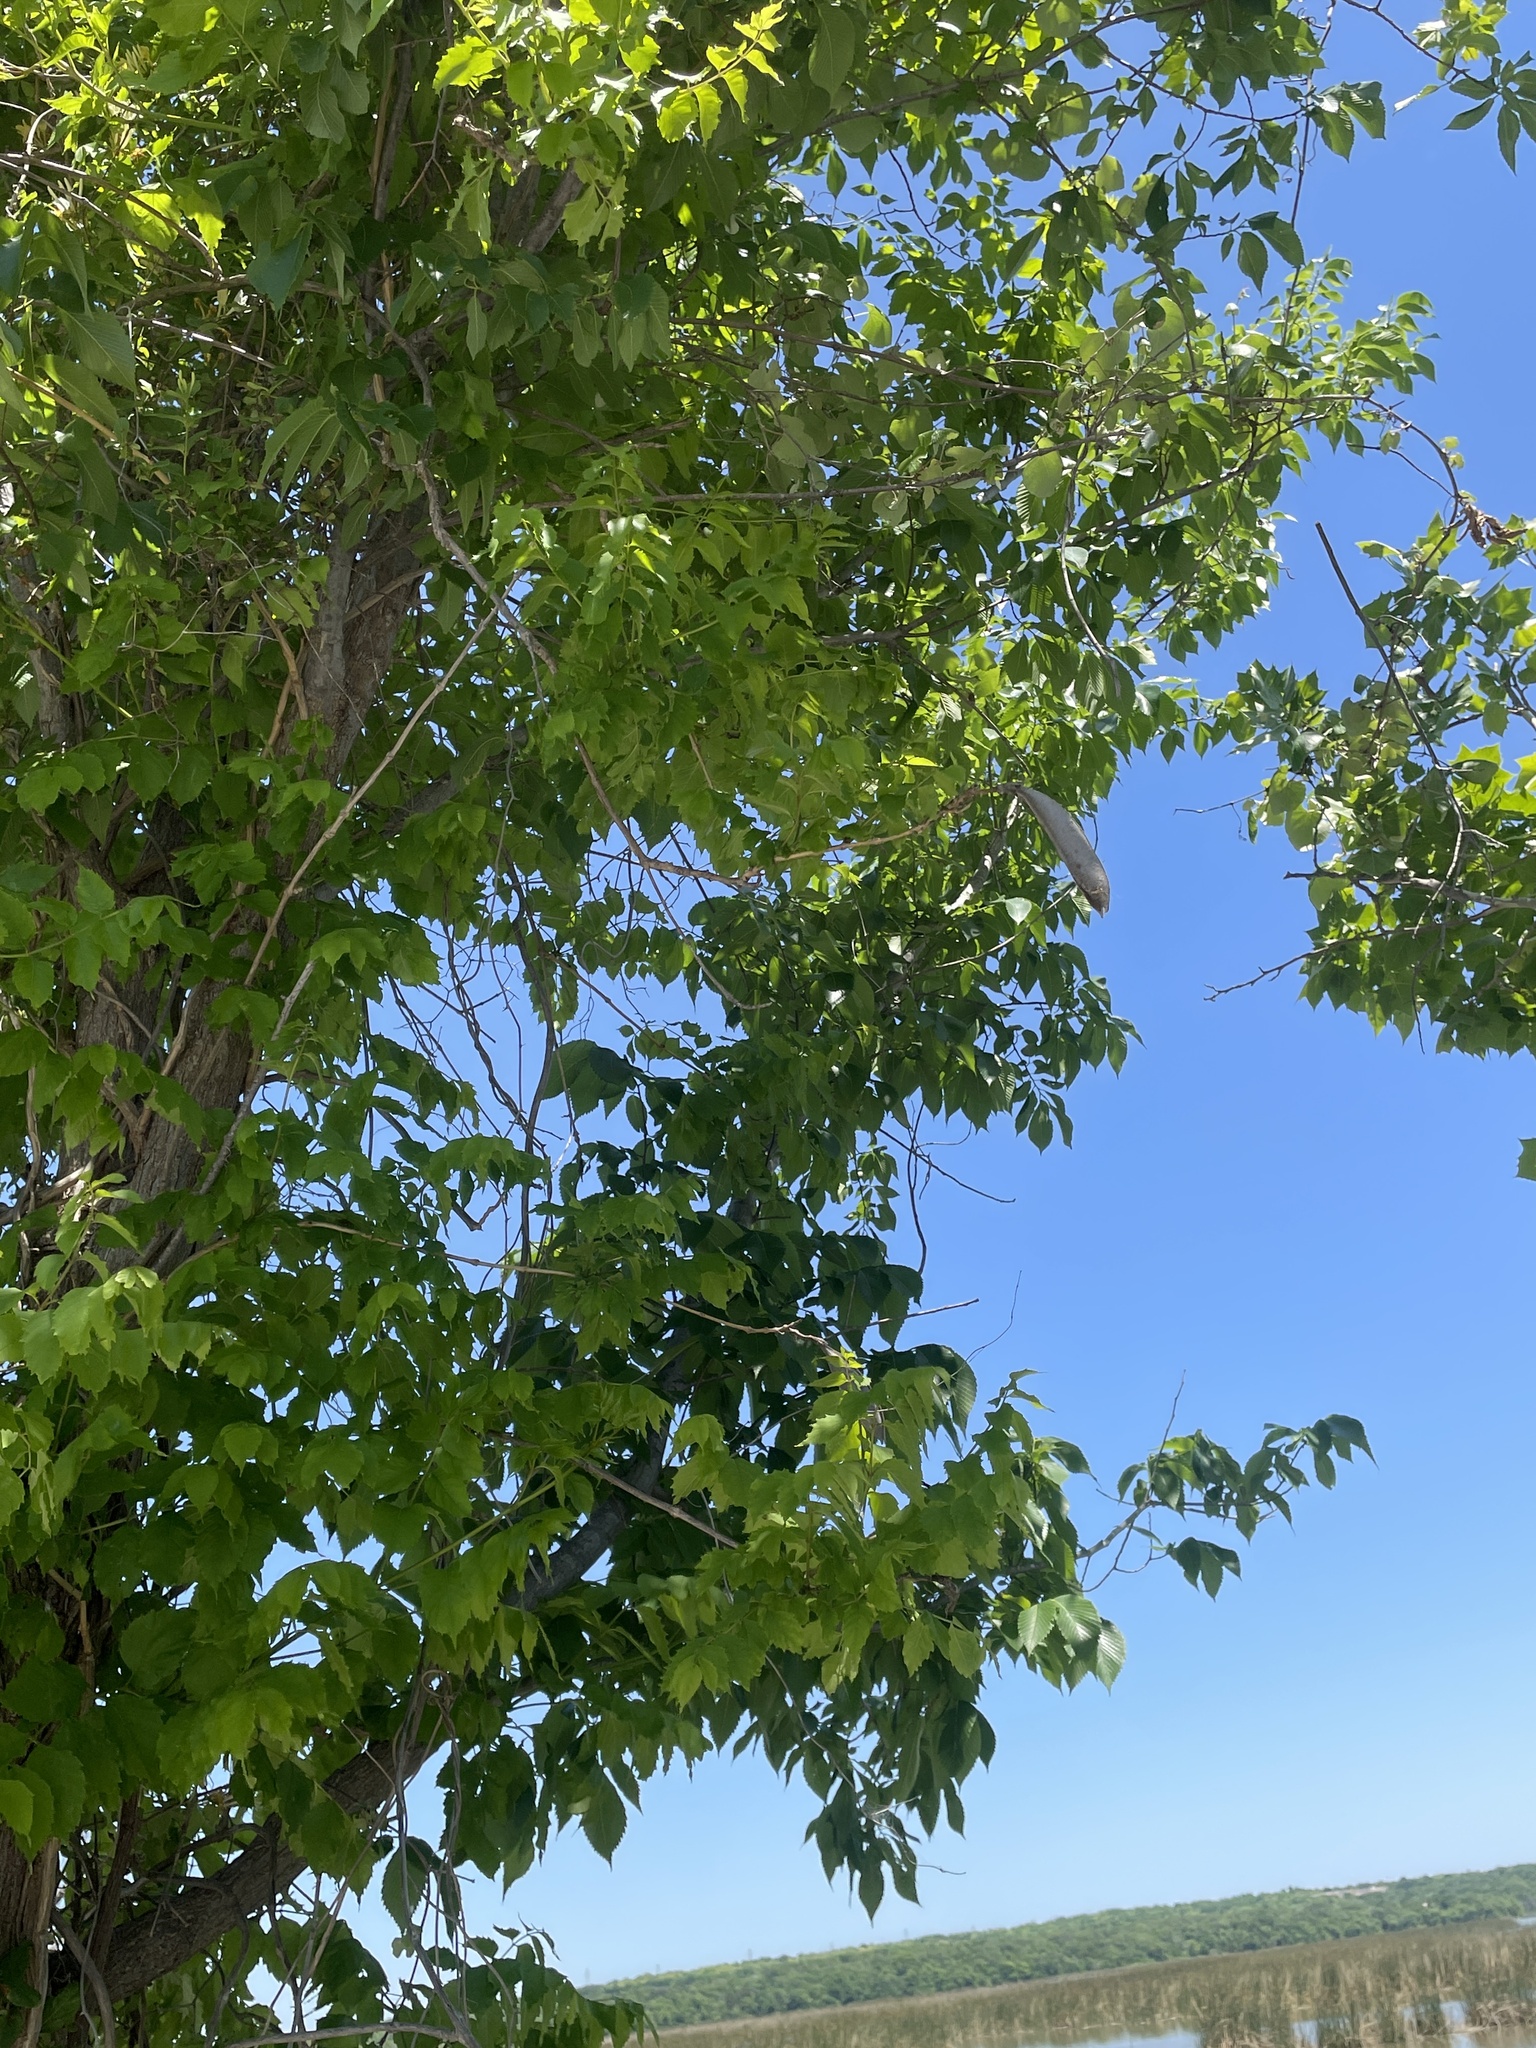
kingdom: Plantae
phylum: Tracheophyta
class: Magnoliopsida
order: Lamiales
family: Bignoniaceae
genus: Campsis
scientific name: Campsis radicans
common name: Trumpet-creeper
